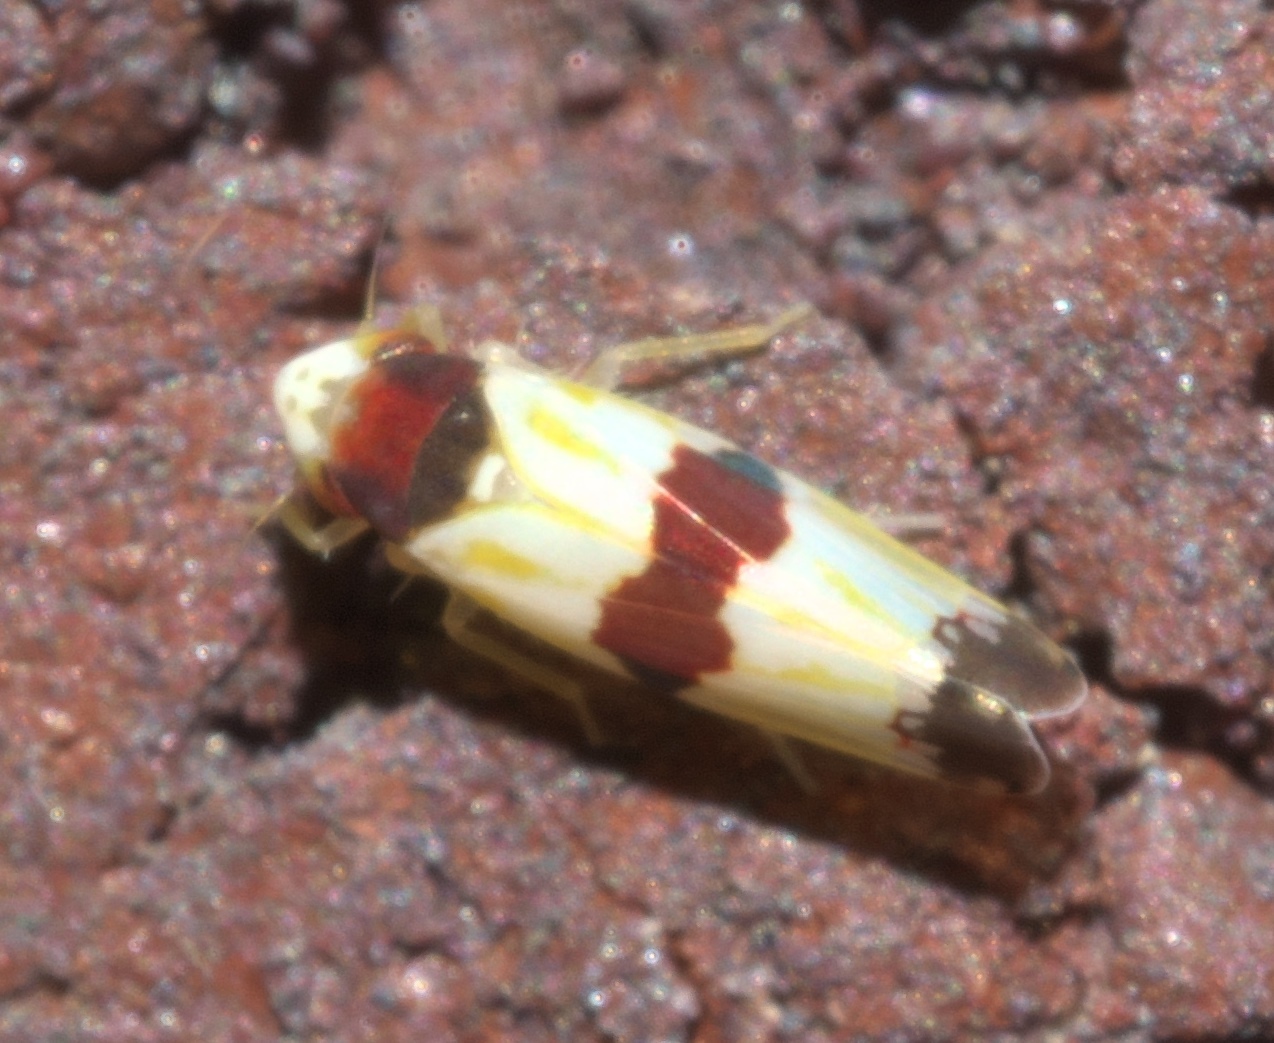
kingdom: Animalia
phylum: Arthropoda
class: Insecta
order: Hemiptera
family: Cicadellidae
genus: Erythroneura
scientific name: Erythroneura diva
